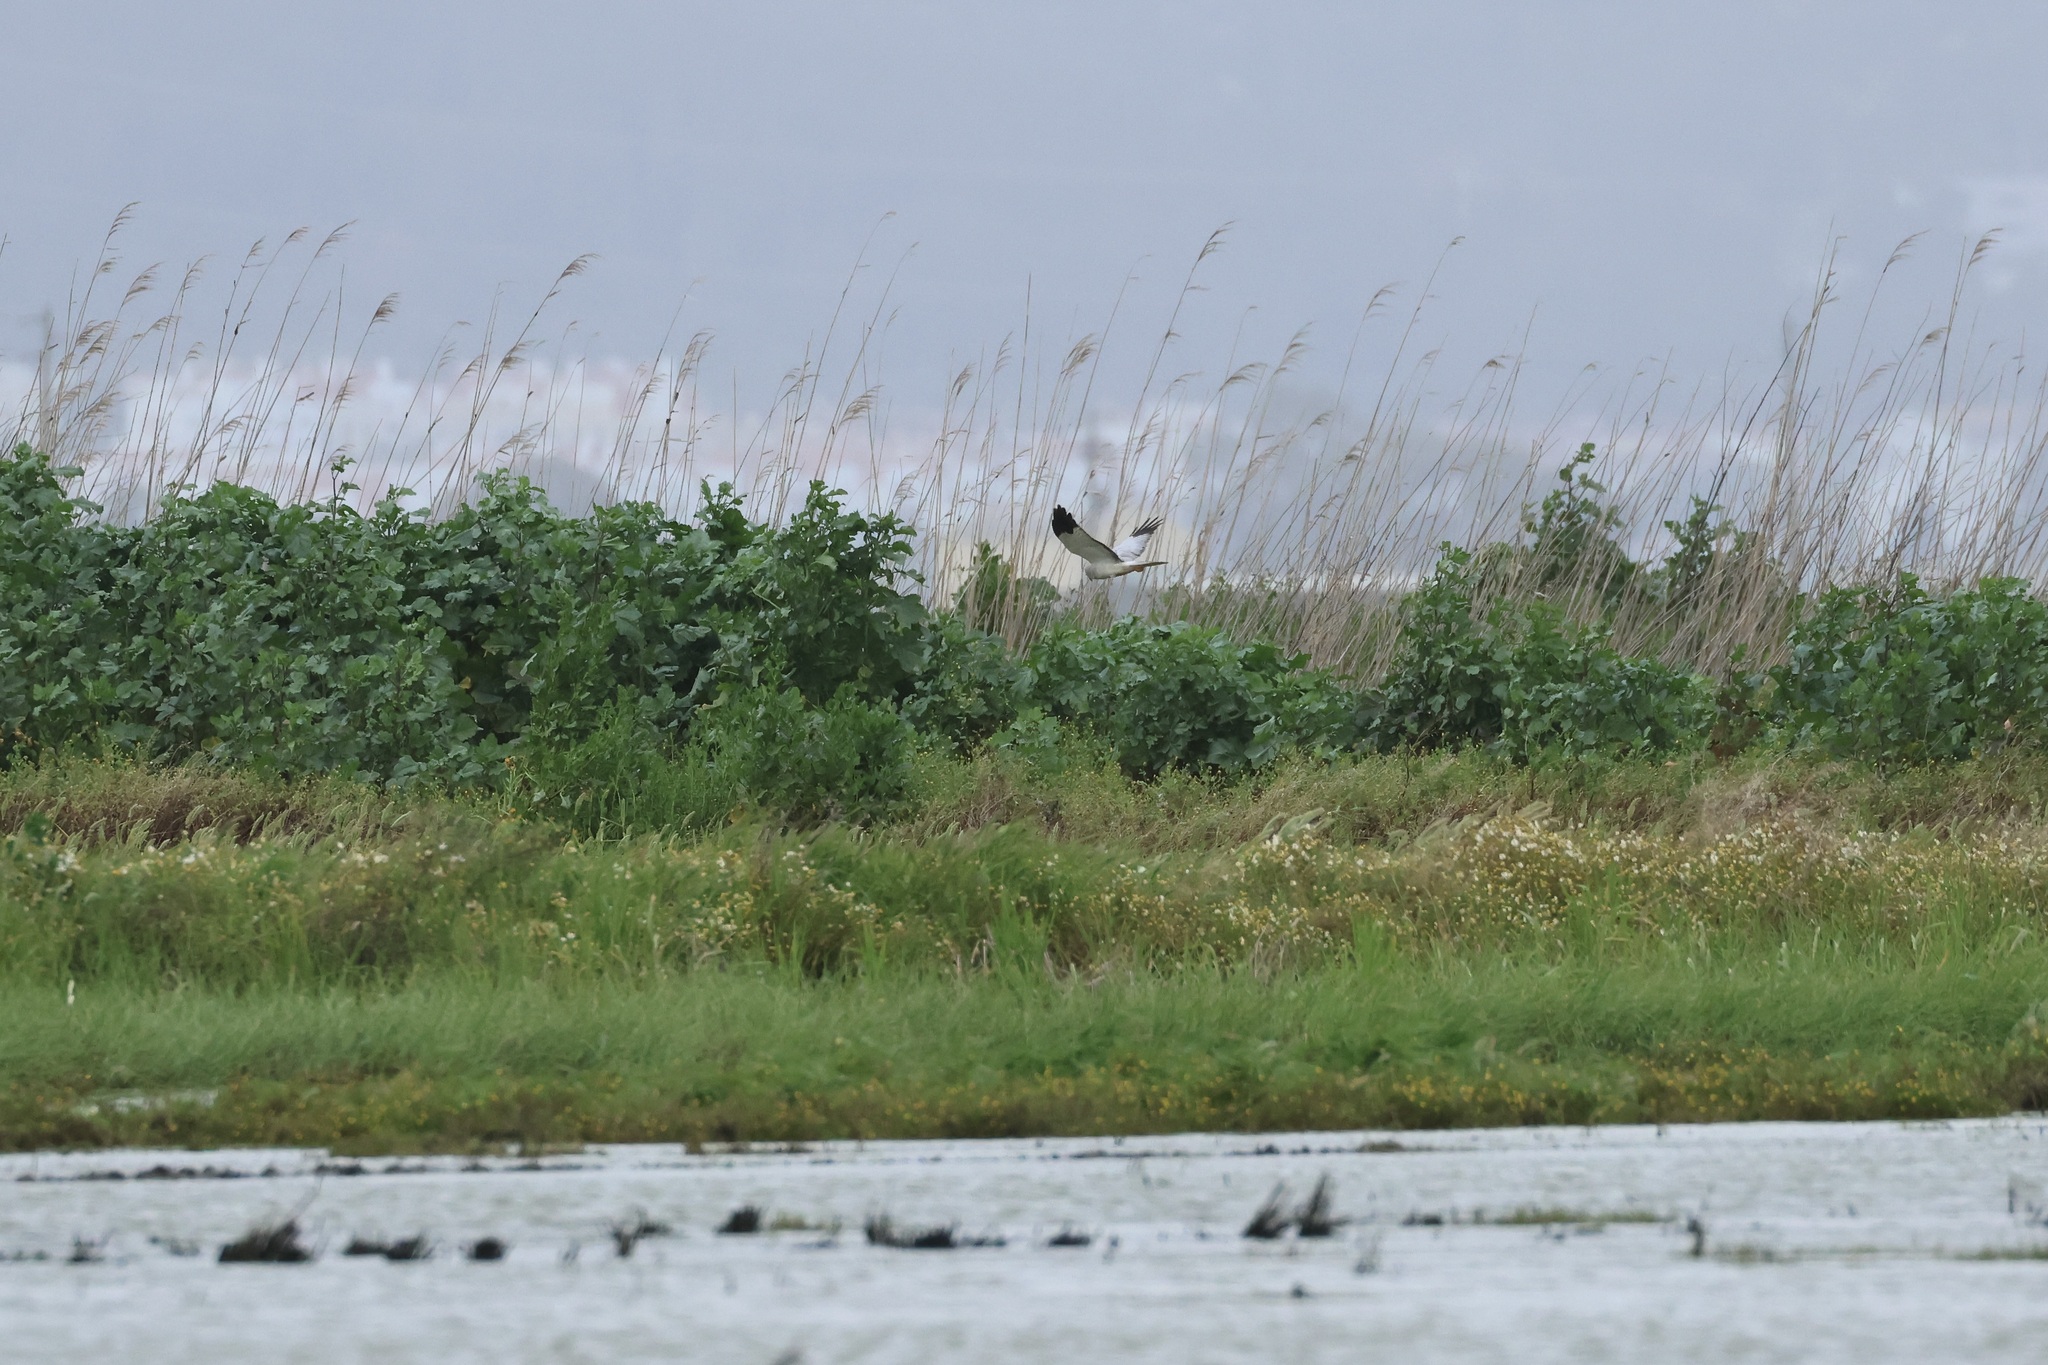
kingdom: Animalia
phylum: Chordata
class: Aves
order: Accipitriformes
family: Accipitridae
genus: Circus
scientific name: Circus cyaneus
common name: Hen harrier
